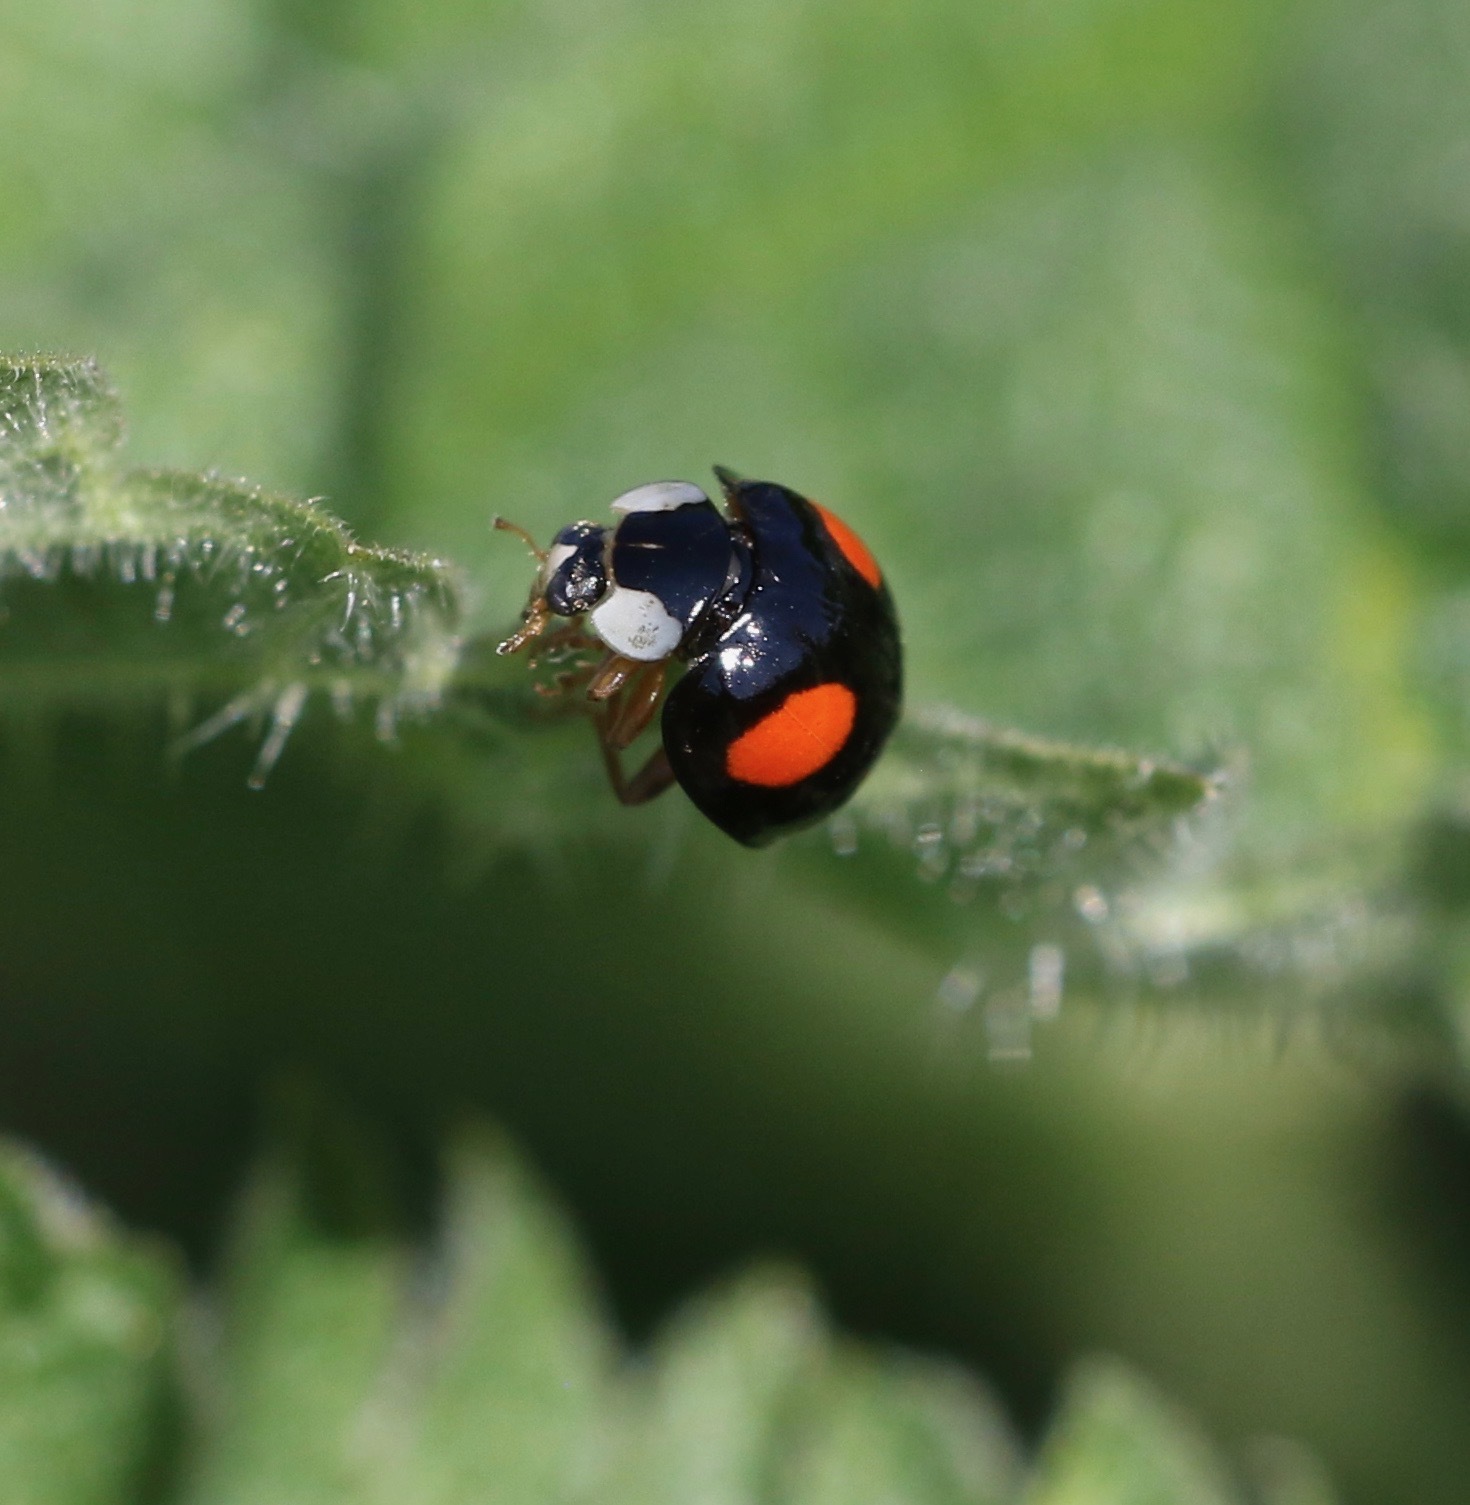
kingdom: Animalia
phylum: Arthropoda
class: Insecta
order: Coleoptera
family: Coccinellidae
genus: Harmonia
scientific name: Harmonia axyridis
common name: Harlequin ladybird
